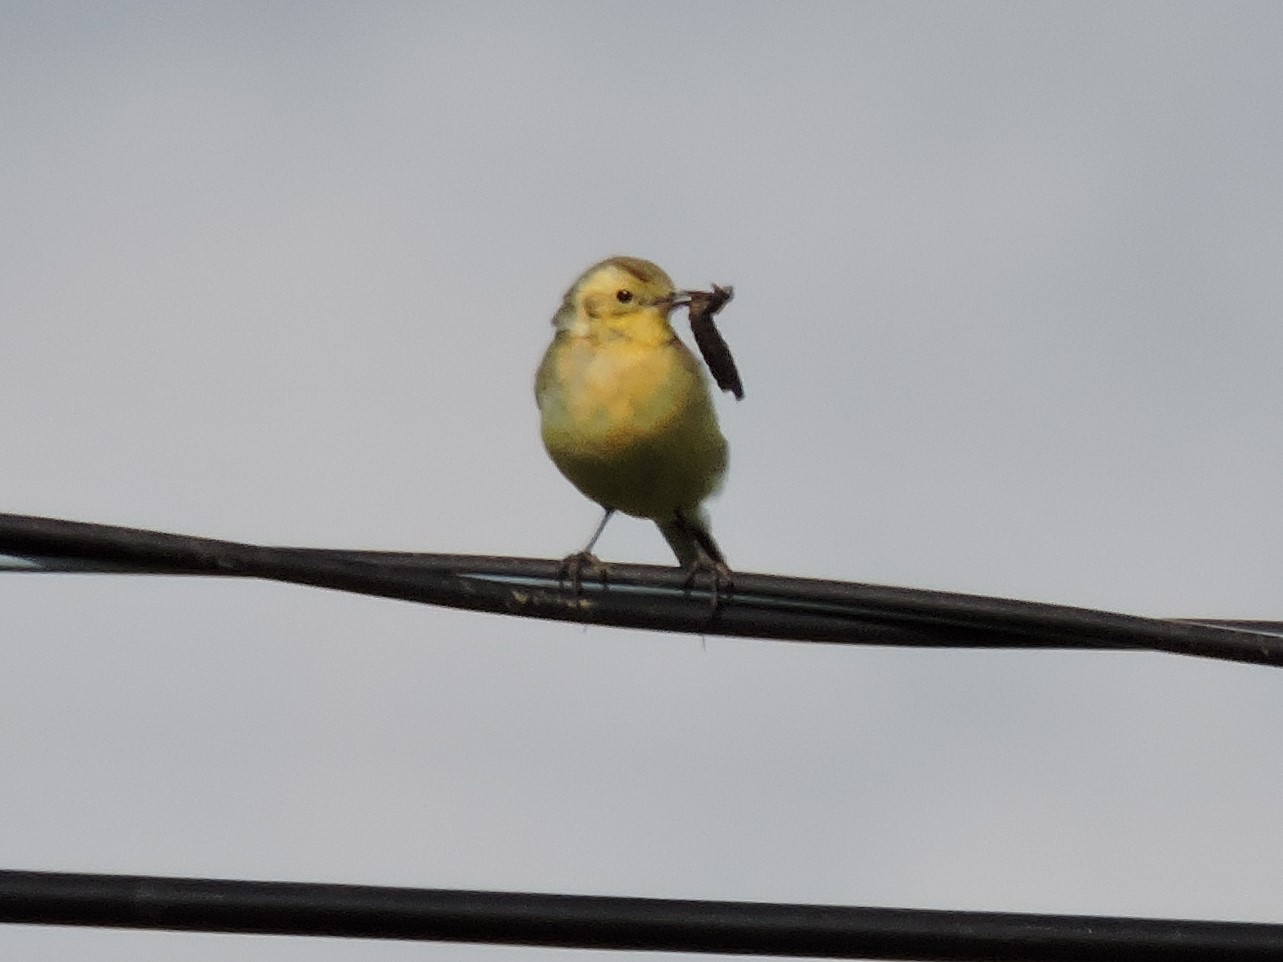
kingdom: Animalia
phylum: Chordata
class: Aves
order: Passeriformes
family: Motacillidae
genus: Motacilla
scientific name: Motacilla citreola
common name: Citrine wagtail
